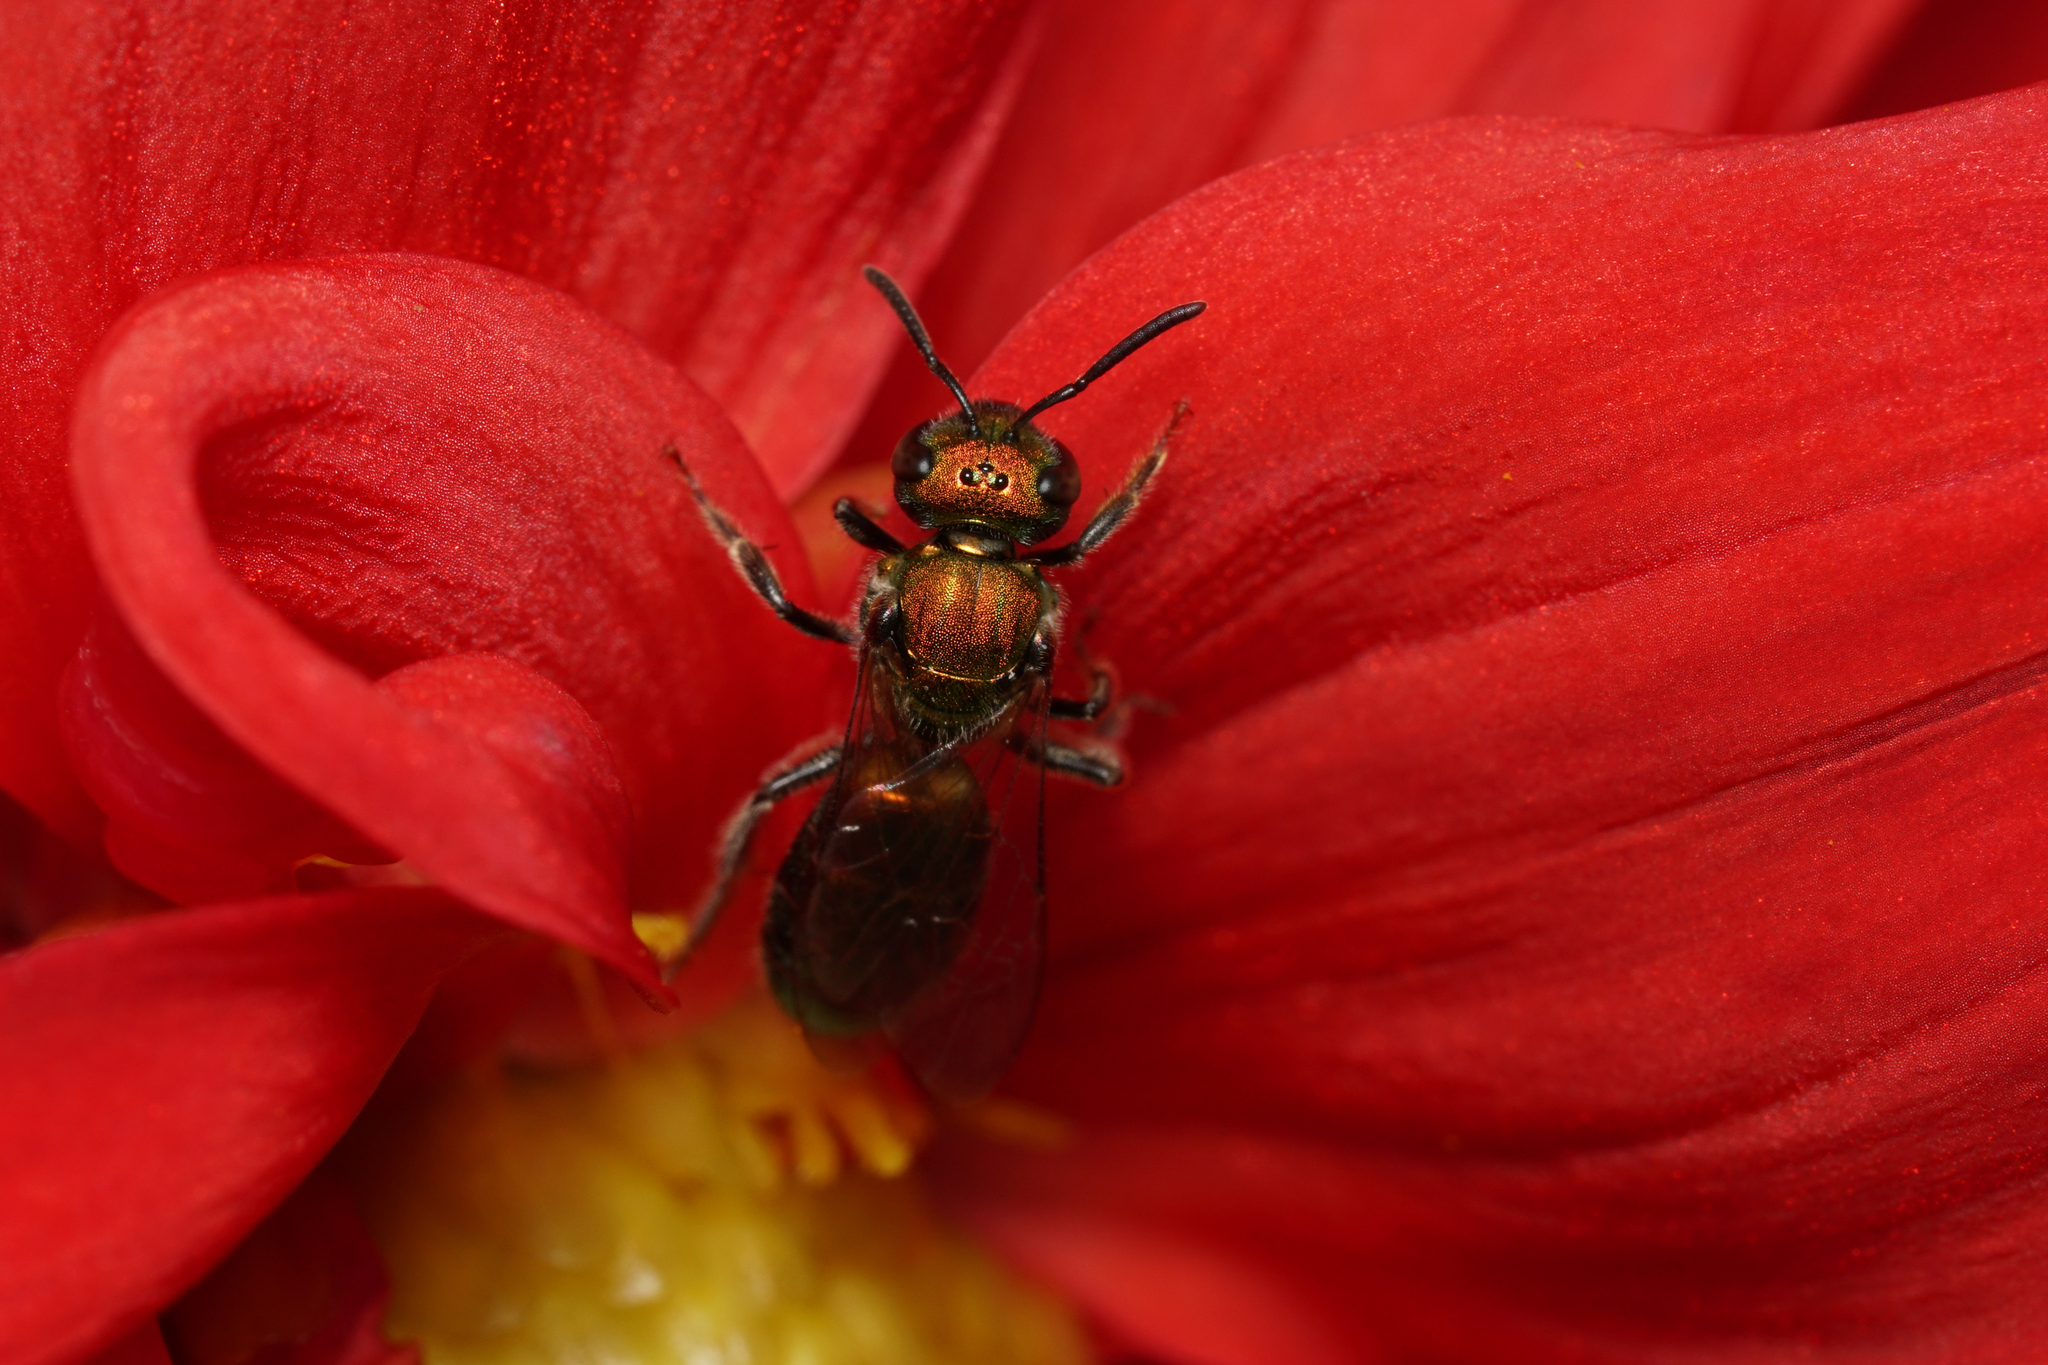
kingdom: Animalia
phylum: Arthropoda
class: Insecta
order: Hymenoptera
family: Halictidae
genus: Augochlora
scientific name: Augochlora pura
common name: Pure green sweat bee
